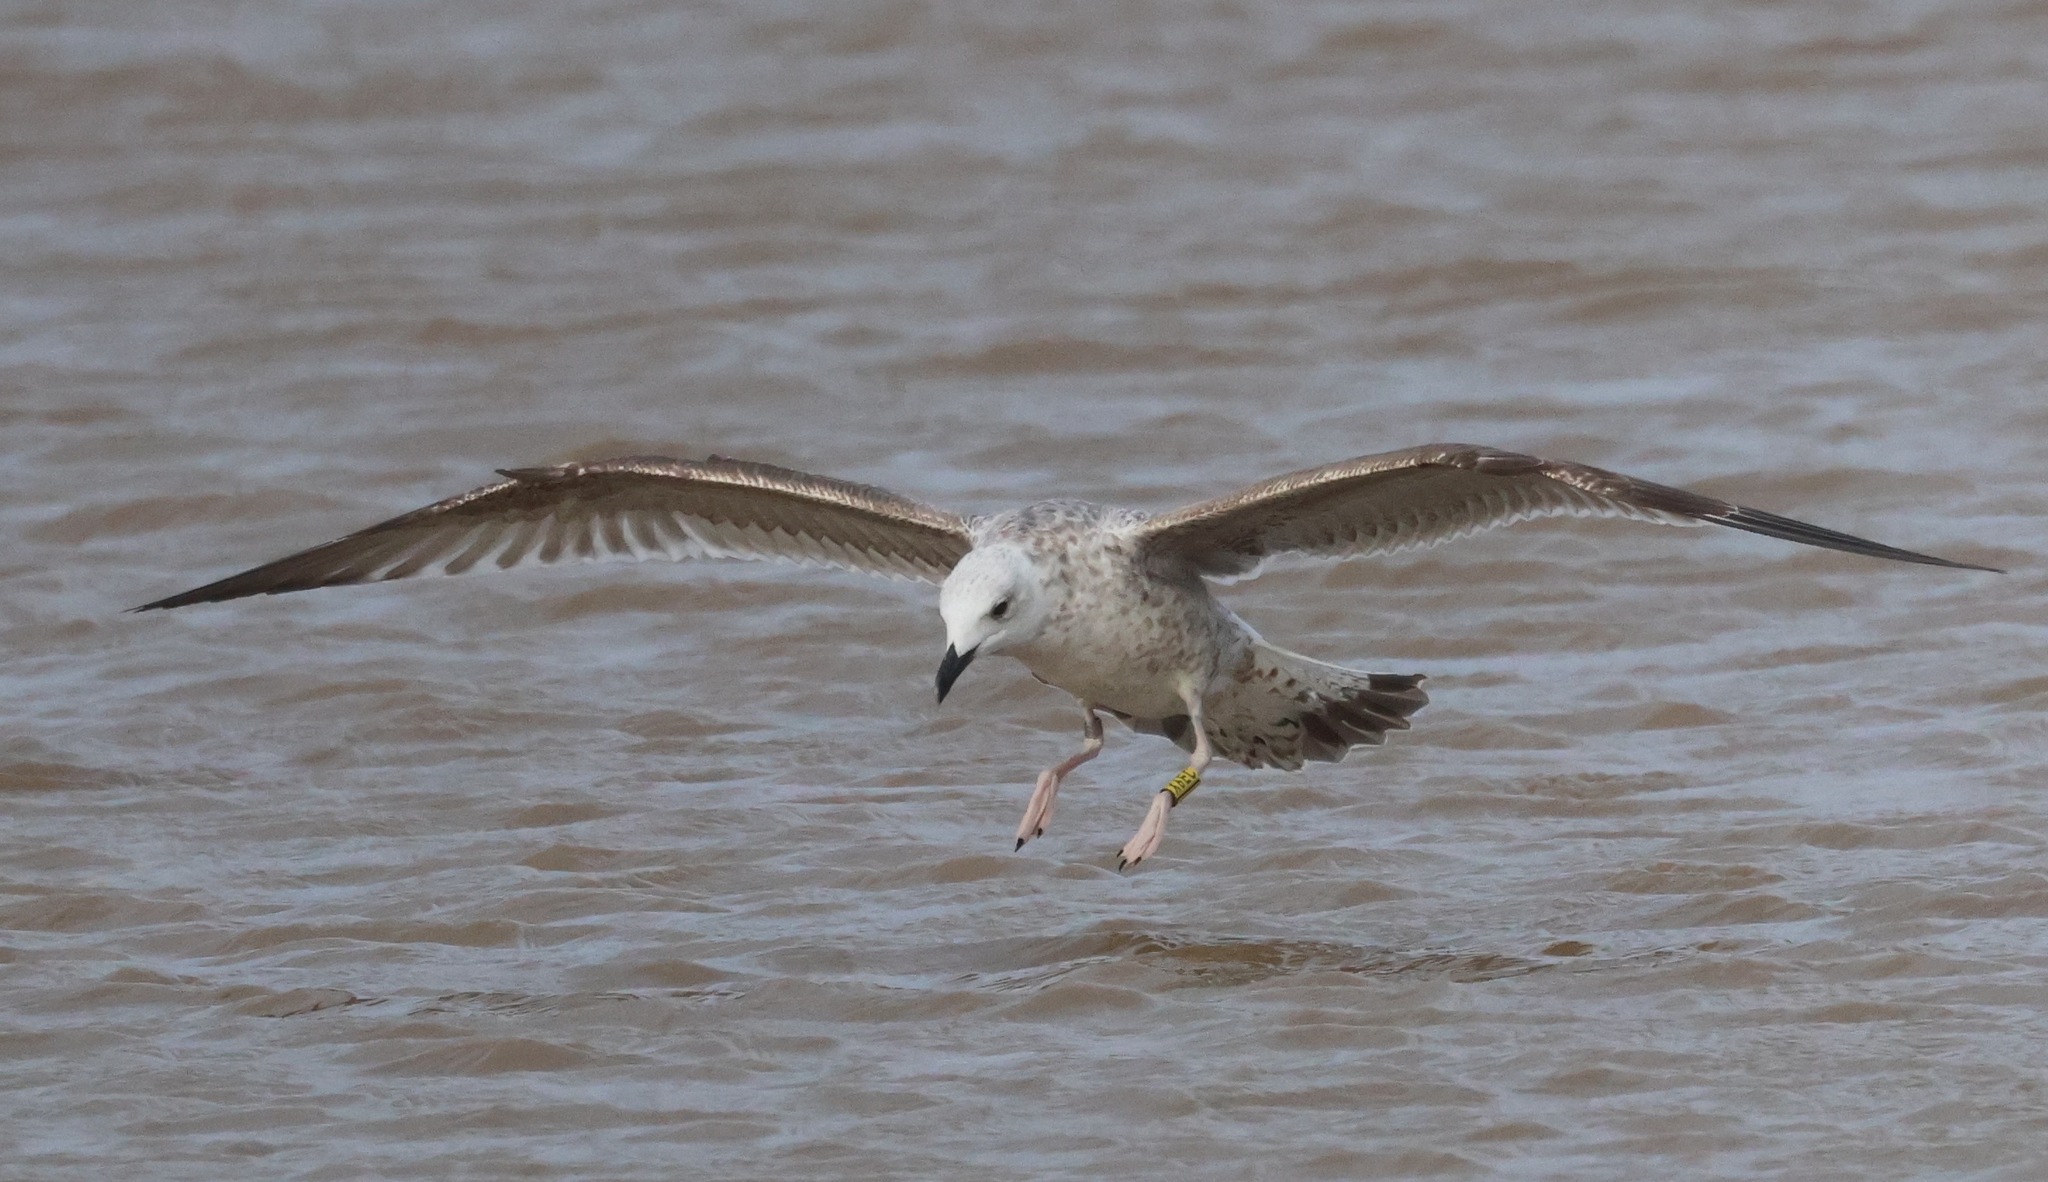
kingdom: Animalia
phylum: Chordata
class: Aves
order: Charadriiformes
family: Laridae
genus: Larus
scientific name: Larus cachinnans
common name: Caspian gull
